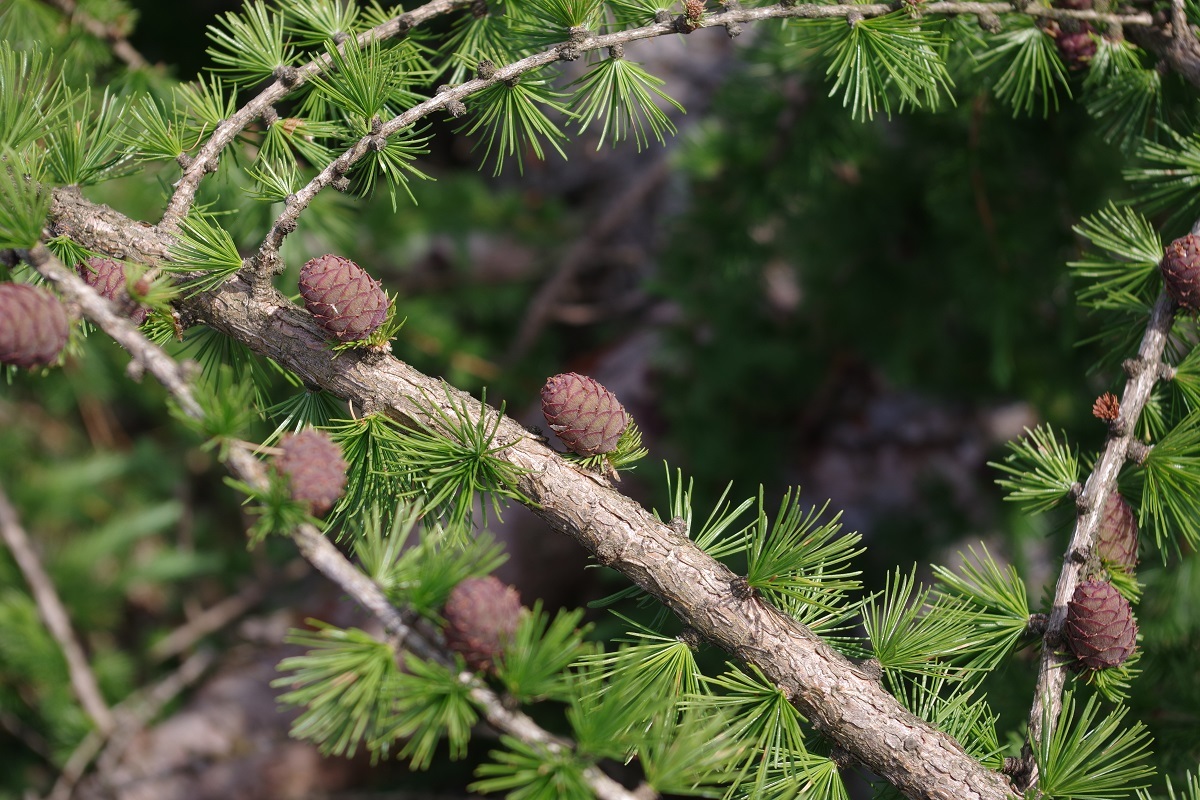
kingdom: Plantae
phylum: Tracheophyta
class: Pinopsida
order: Pinales
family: Pinaceae
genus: Larix
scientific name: Larix decidua
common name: European larch
